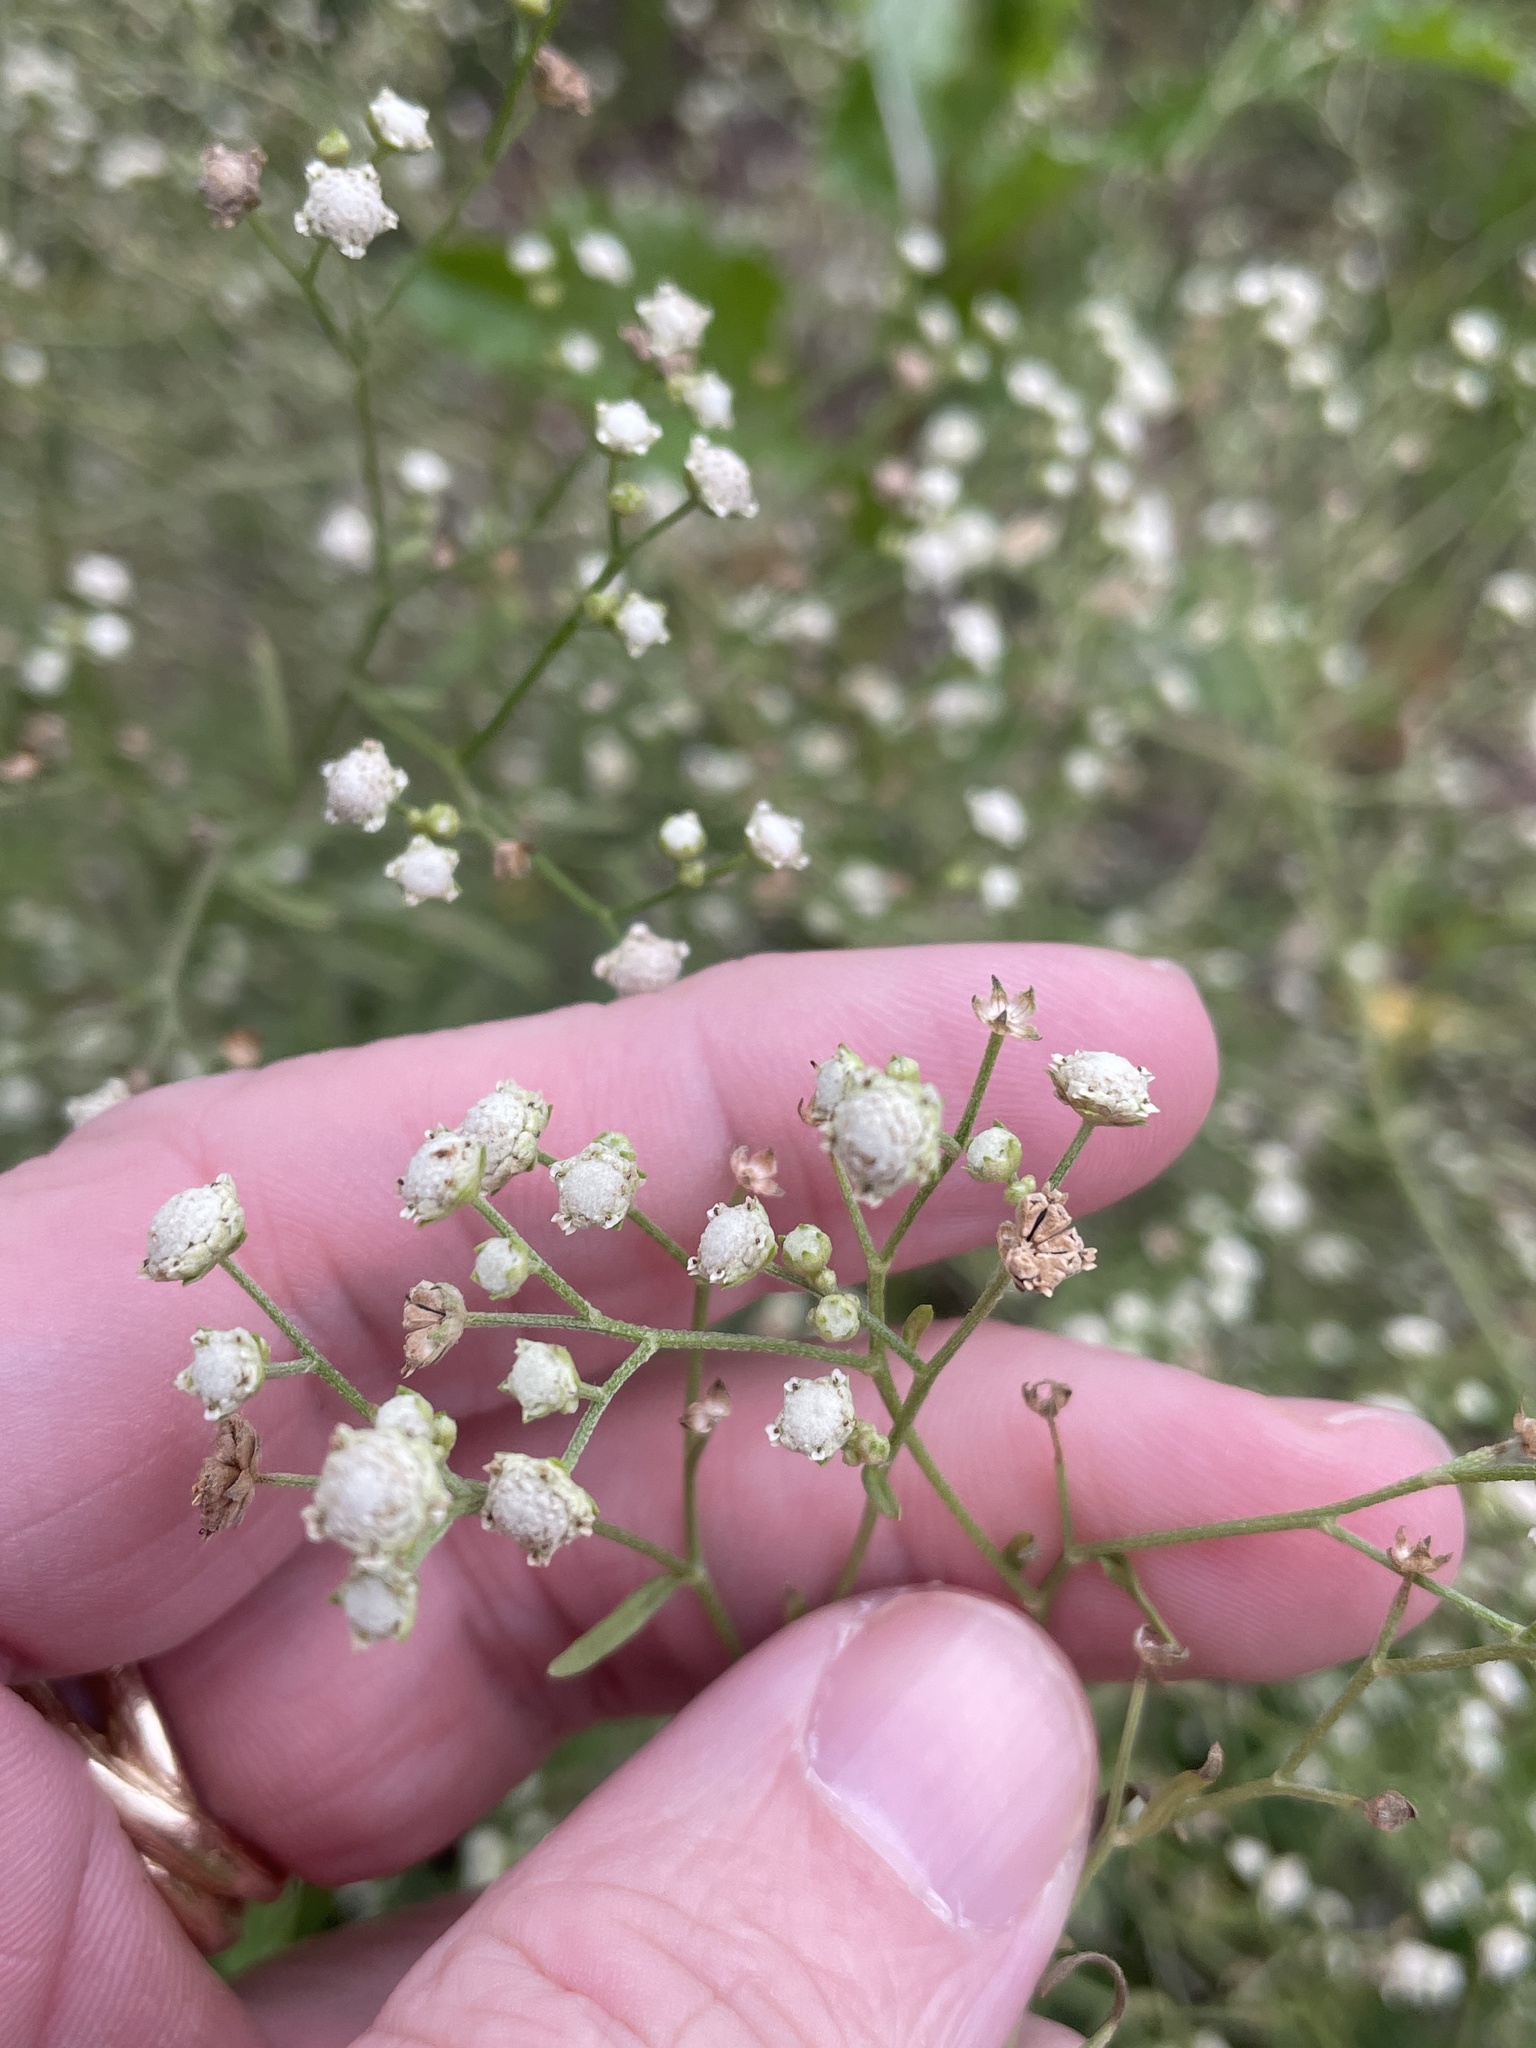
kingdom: Plantae
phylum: Tracheophyta
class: Magnoliopsida
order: Asterales
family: Asteraceae
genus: Parthenium
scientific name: Parthenium hysterophorus
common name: Santa maria feverfew
